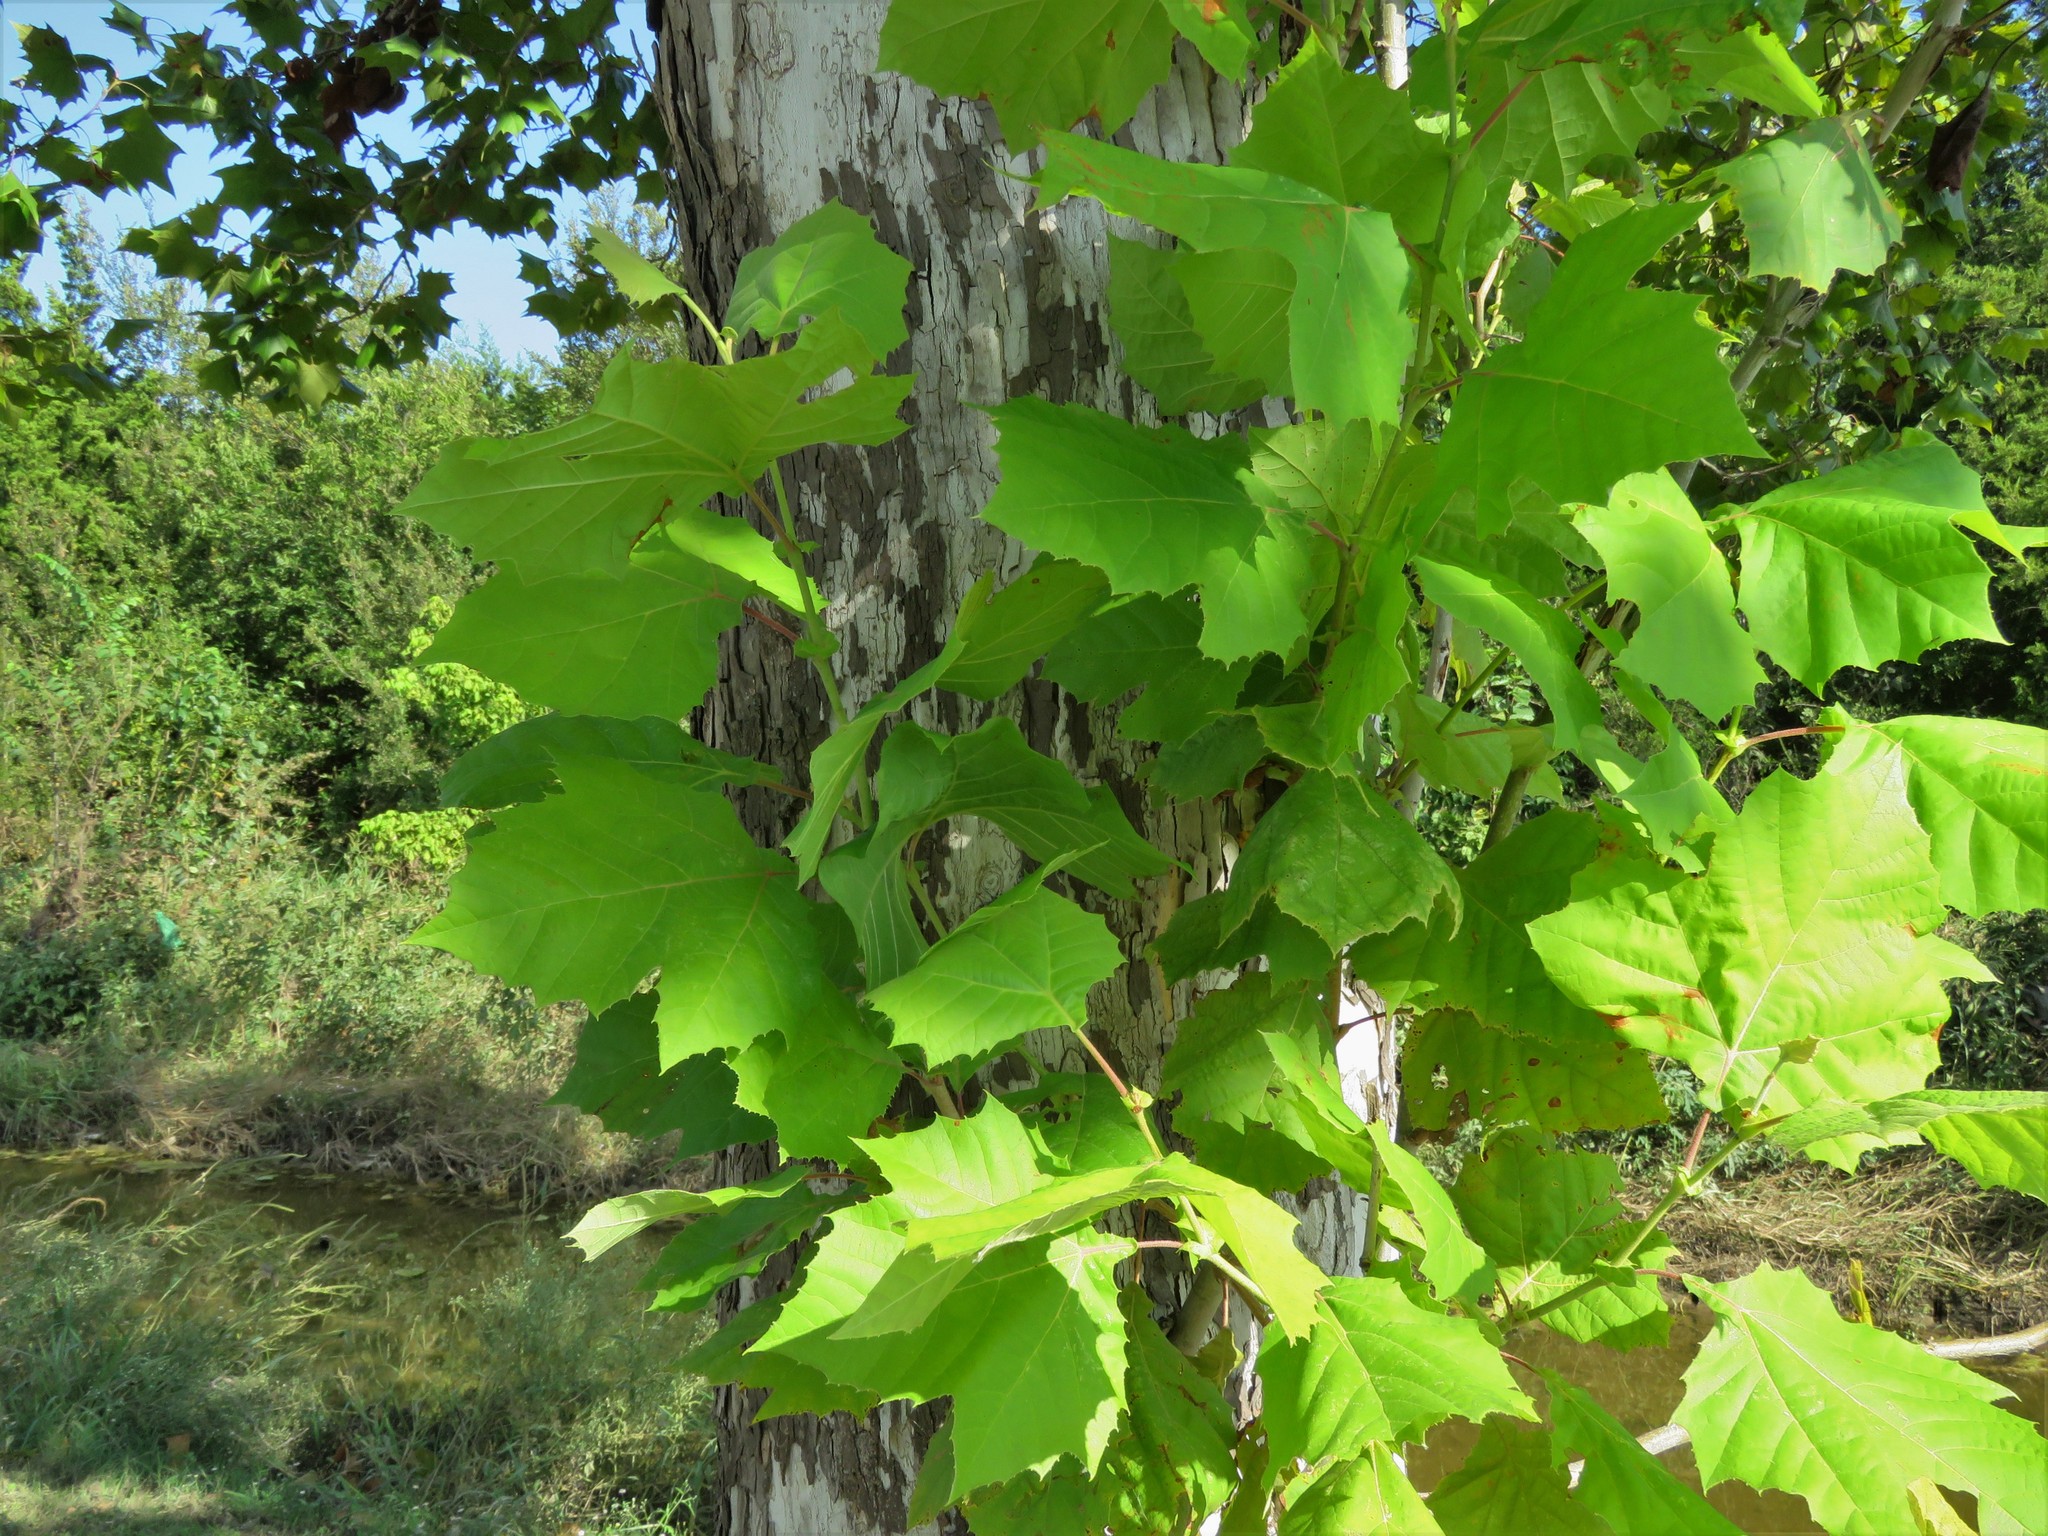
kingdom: Plantae
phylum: Tracheophyta
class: Magnoliopsida
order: Proteales
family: Platanaceae
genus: Platanus
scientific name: Platanus occidentalis
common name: American sycamore
